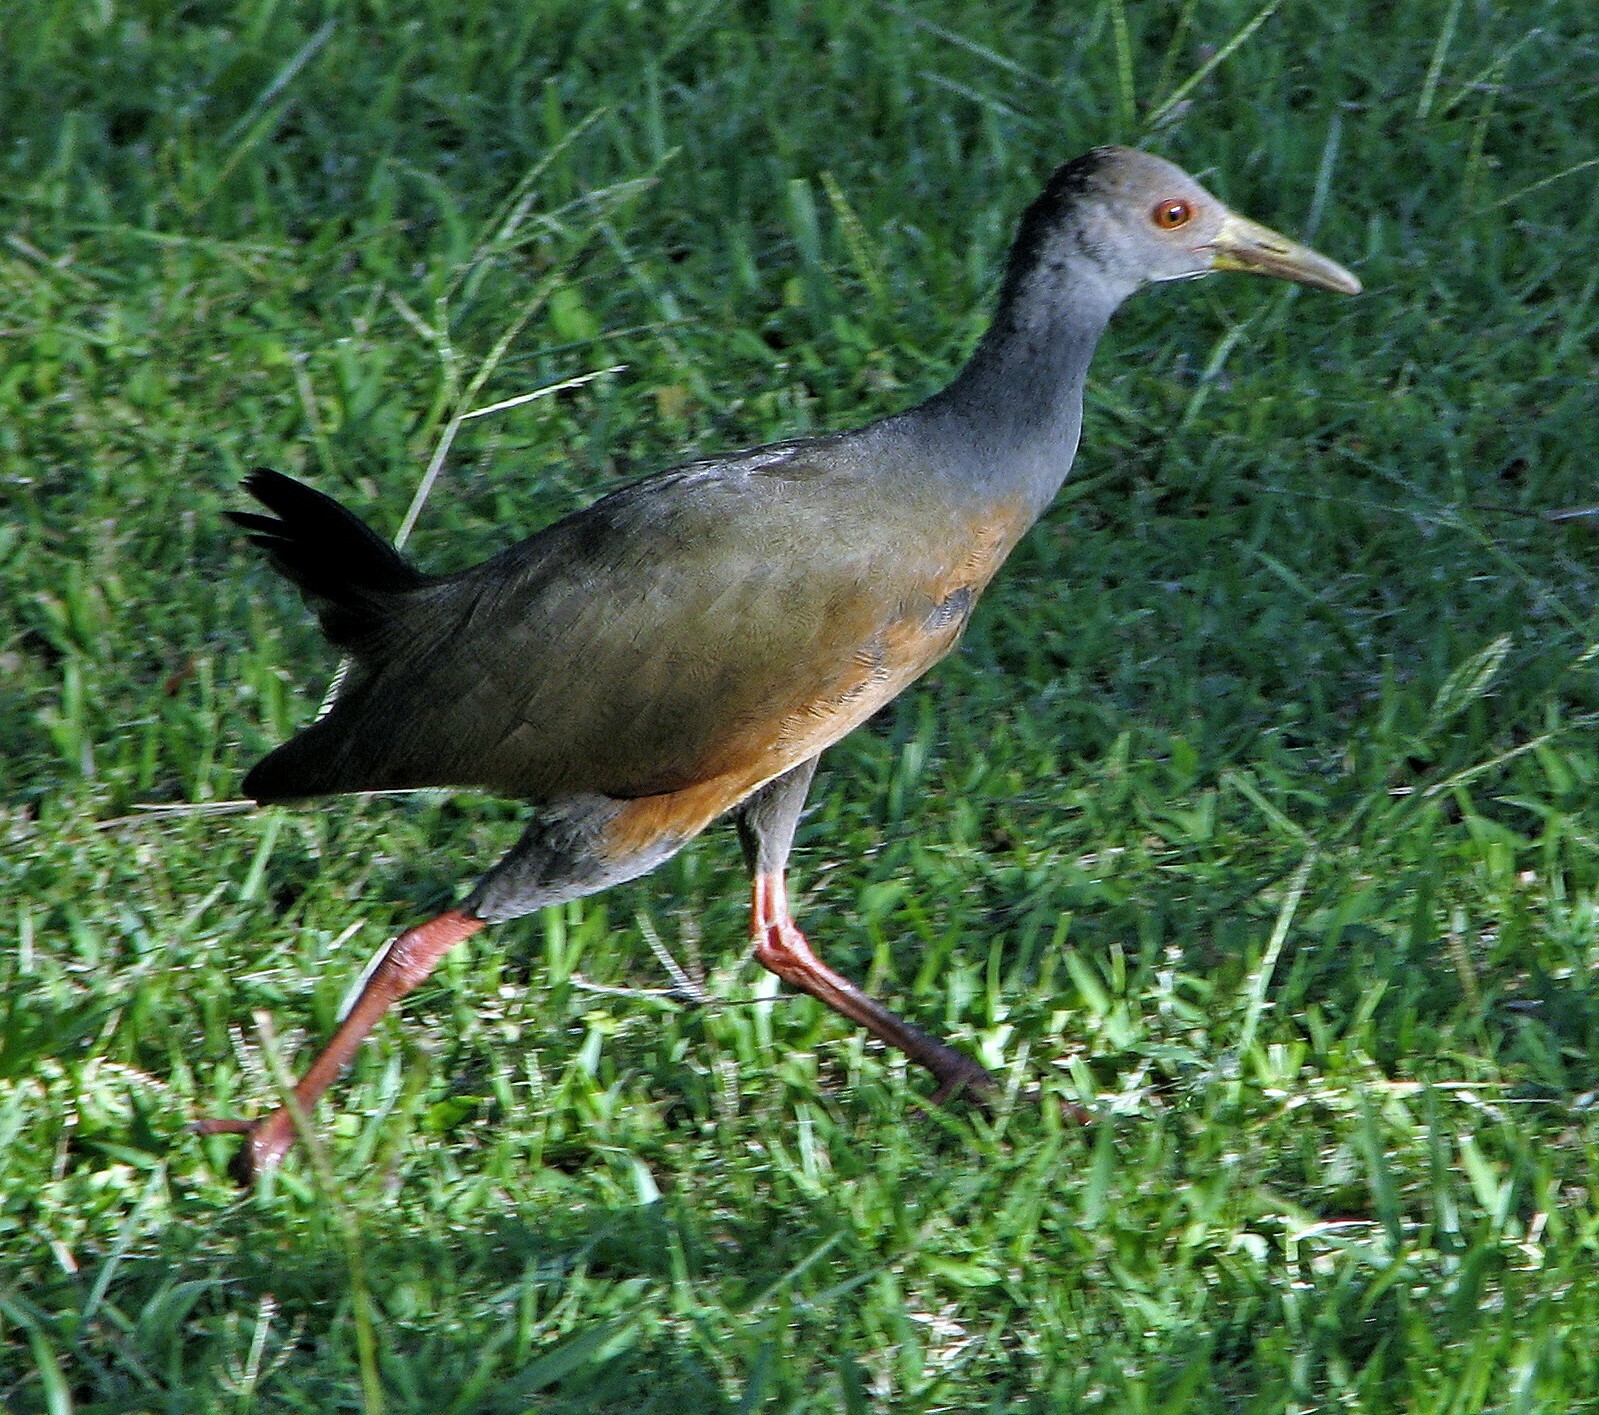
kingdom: Animalia
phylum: Chordata
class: Aves
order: Gruiformes
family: Rallidae
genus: Aramides
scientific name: Aramides cajanea
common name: Gray-necked wood-rail
